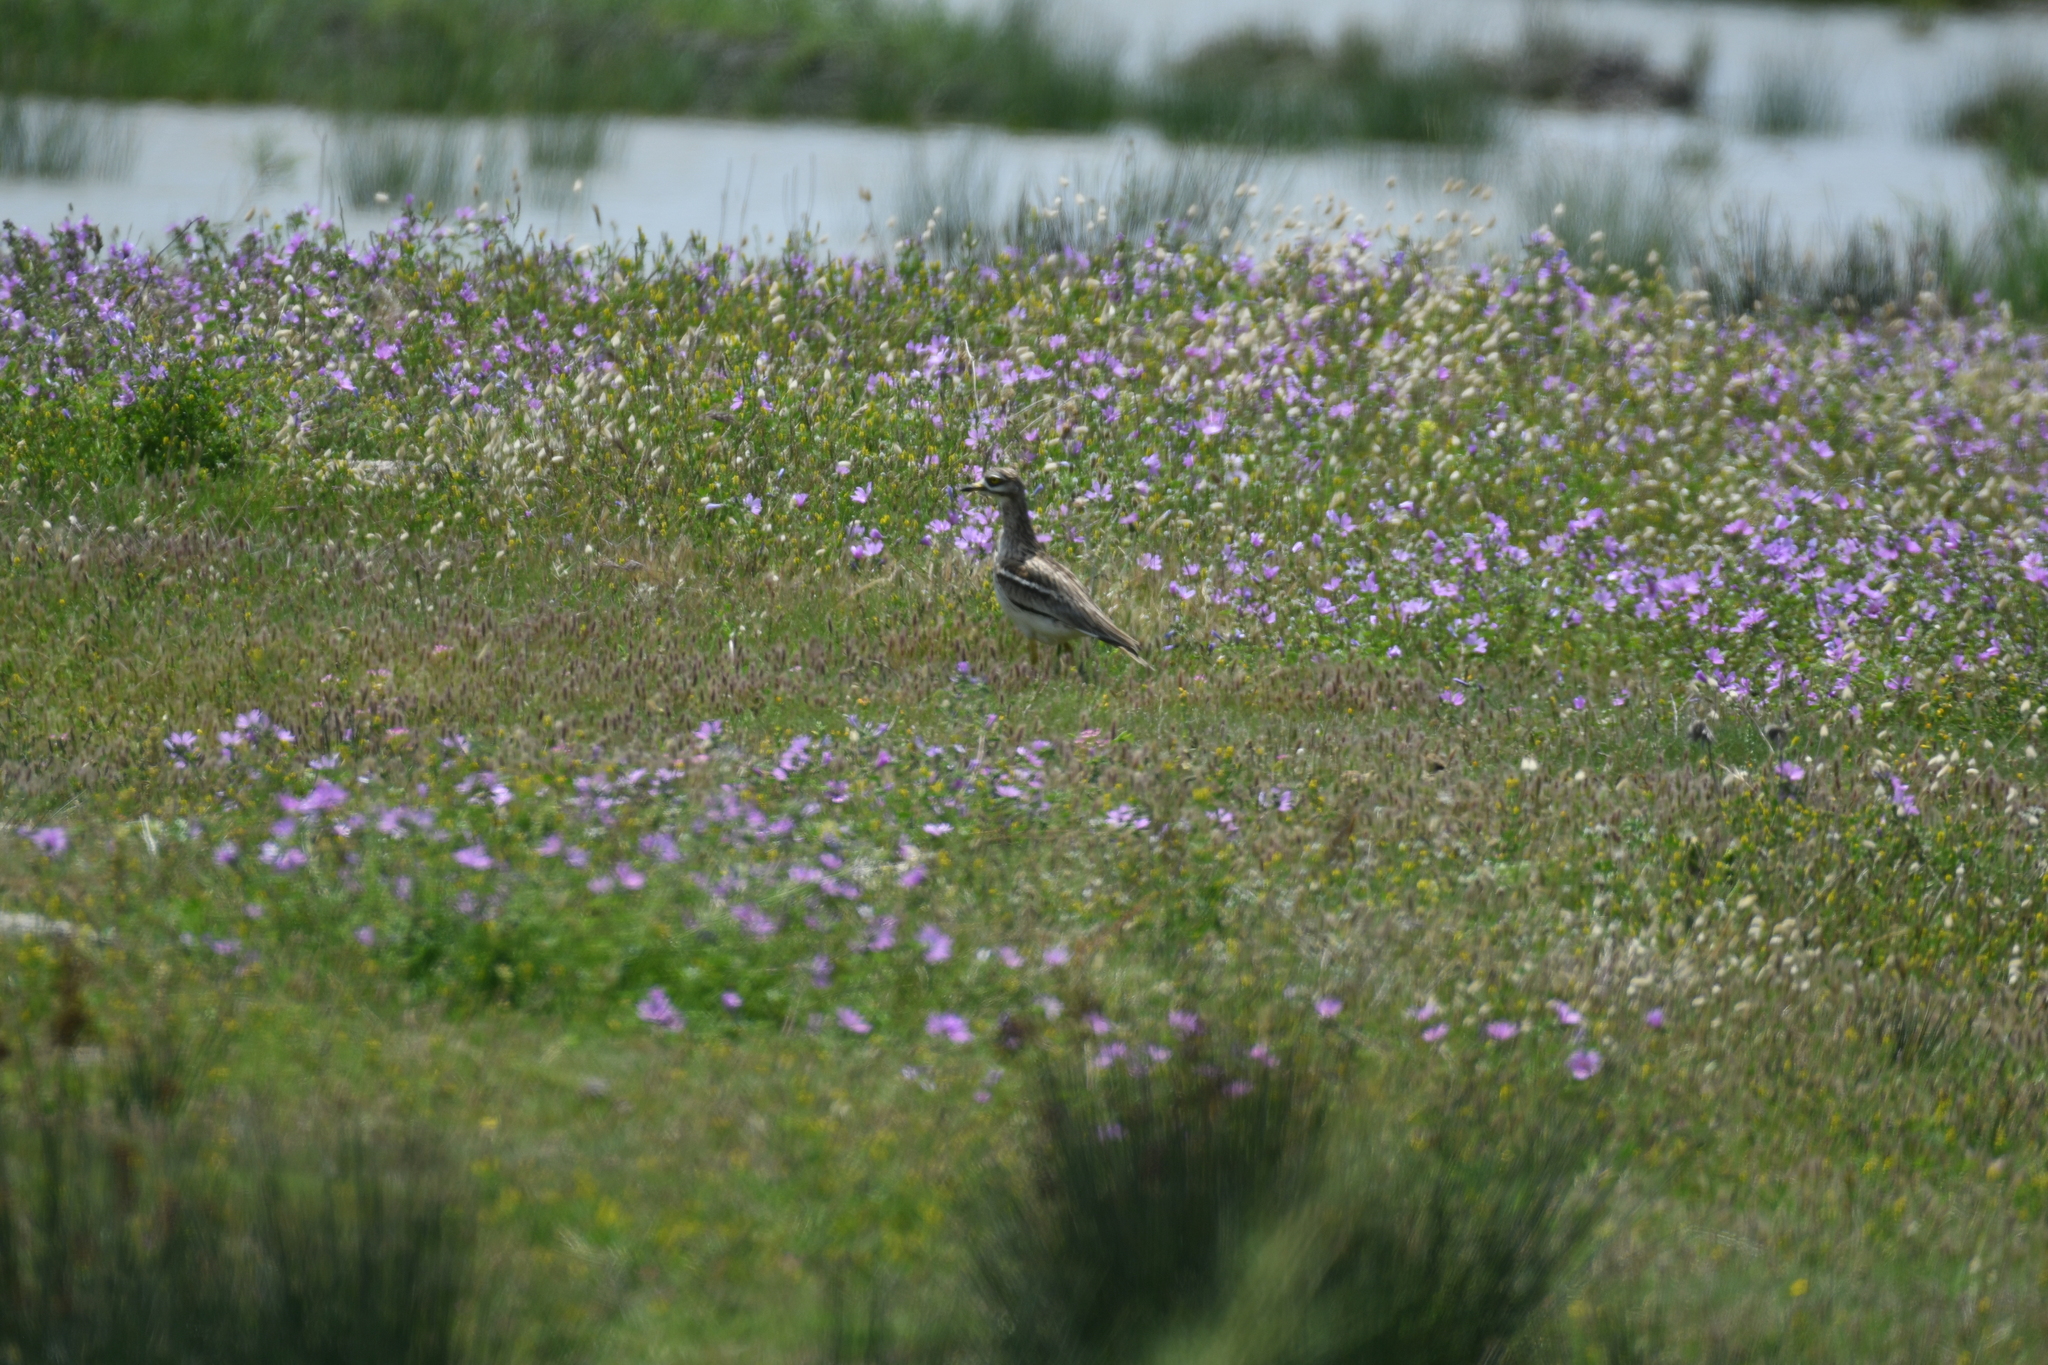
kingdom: Animalia
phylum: Chordata
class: Aves
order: Charadriiformes
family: Burhinidae
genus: Burhinus
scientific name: Burhinus oedicnemus
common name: Eurasian stone-curlew
